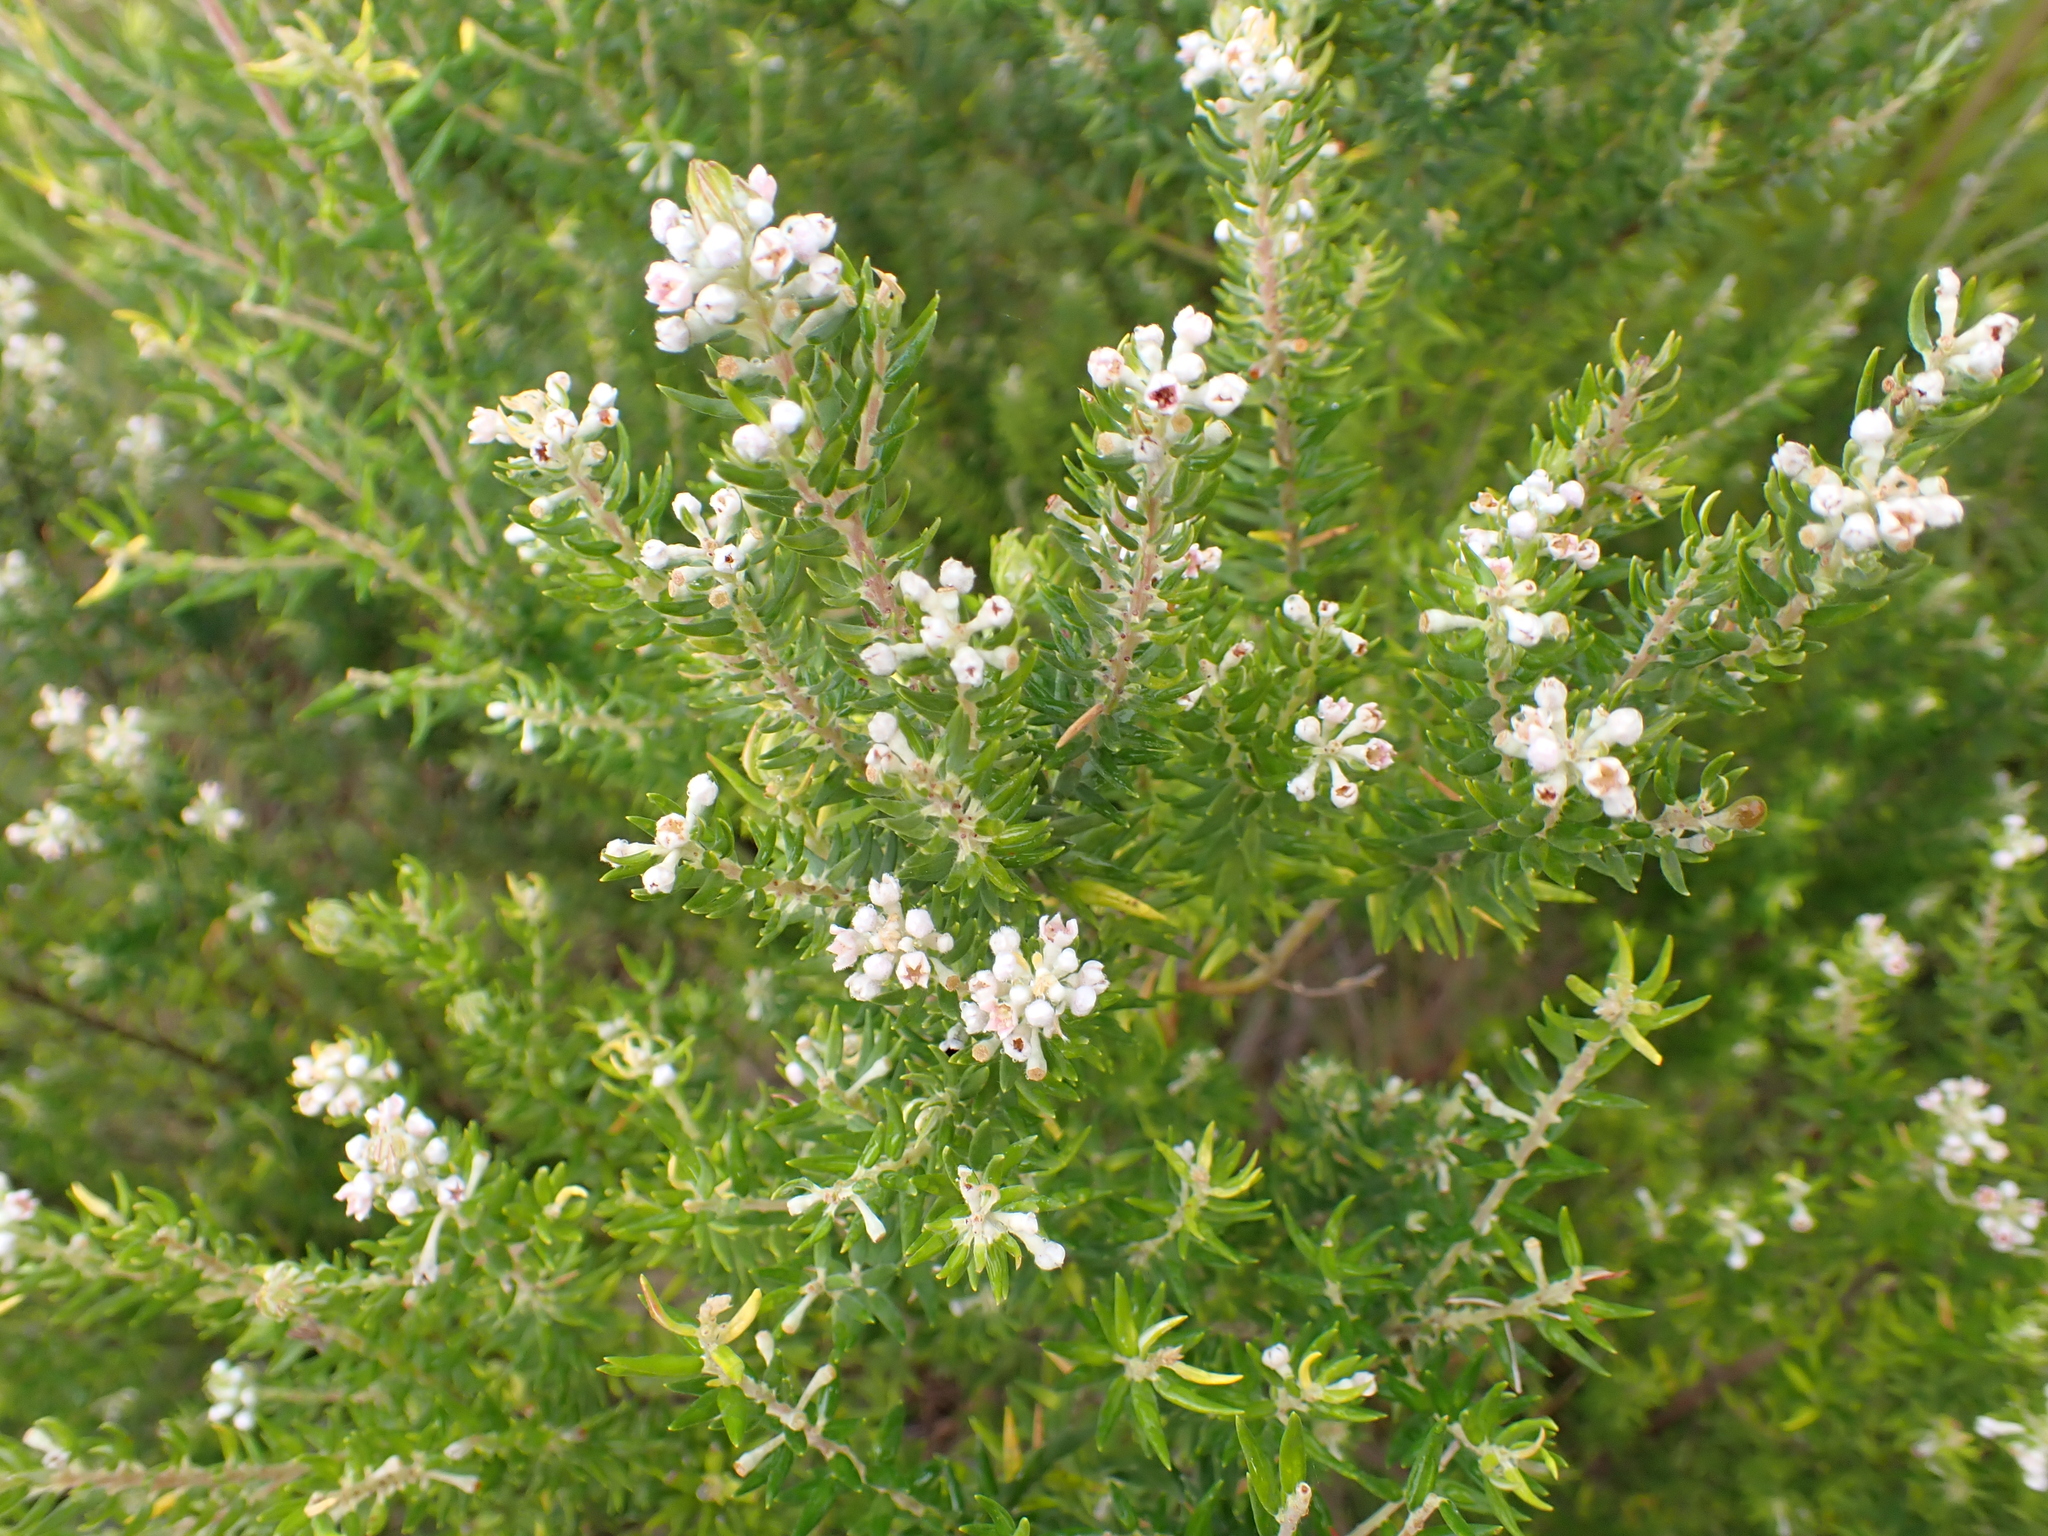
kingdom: Plantae
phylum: Tracheophyta
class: Magnoliopsida
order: Rosales
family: Rhamnaceae
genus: Phylica
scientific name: Phylica pinea
